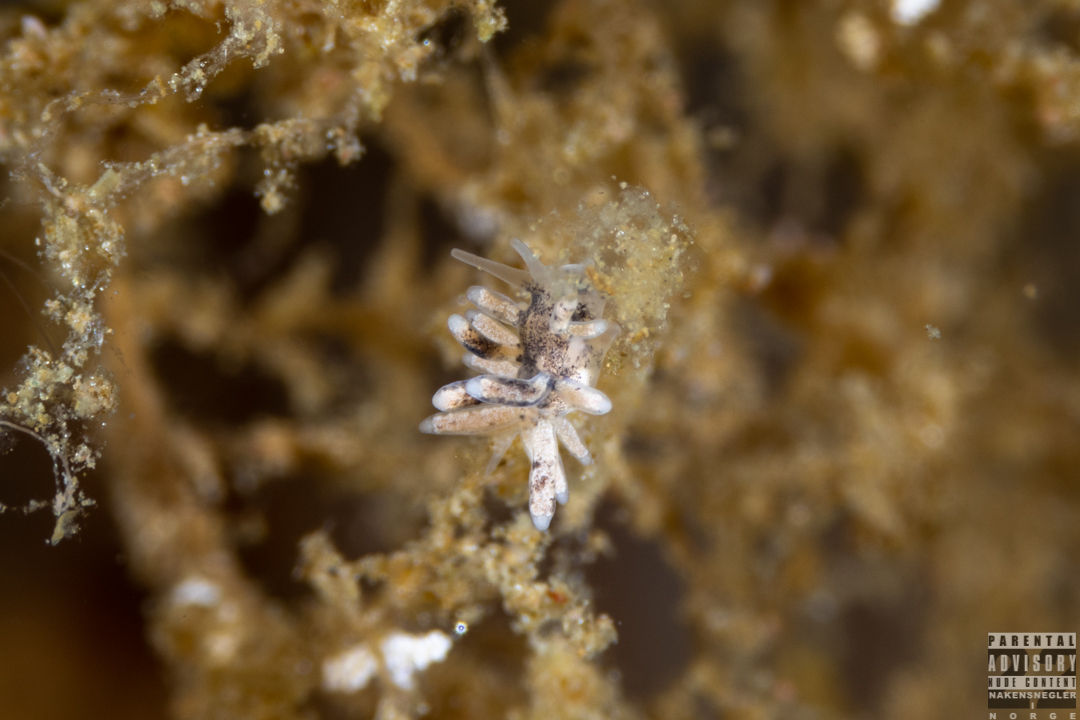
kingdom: Animalia
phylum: Mollusca
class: Gastropoda
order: Nudibranchia
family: Trinchesiidae
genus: Tenellia
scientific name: Tenellia adspersa
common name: Lagoon sea slug
